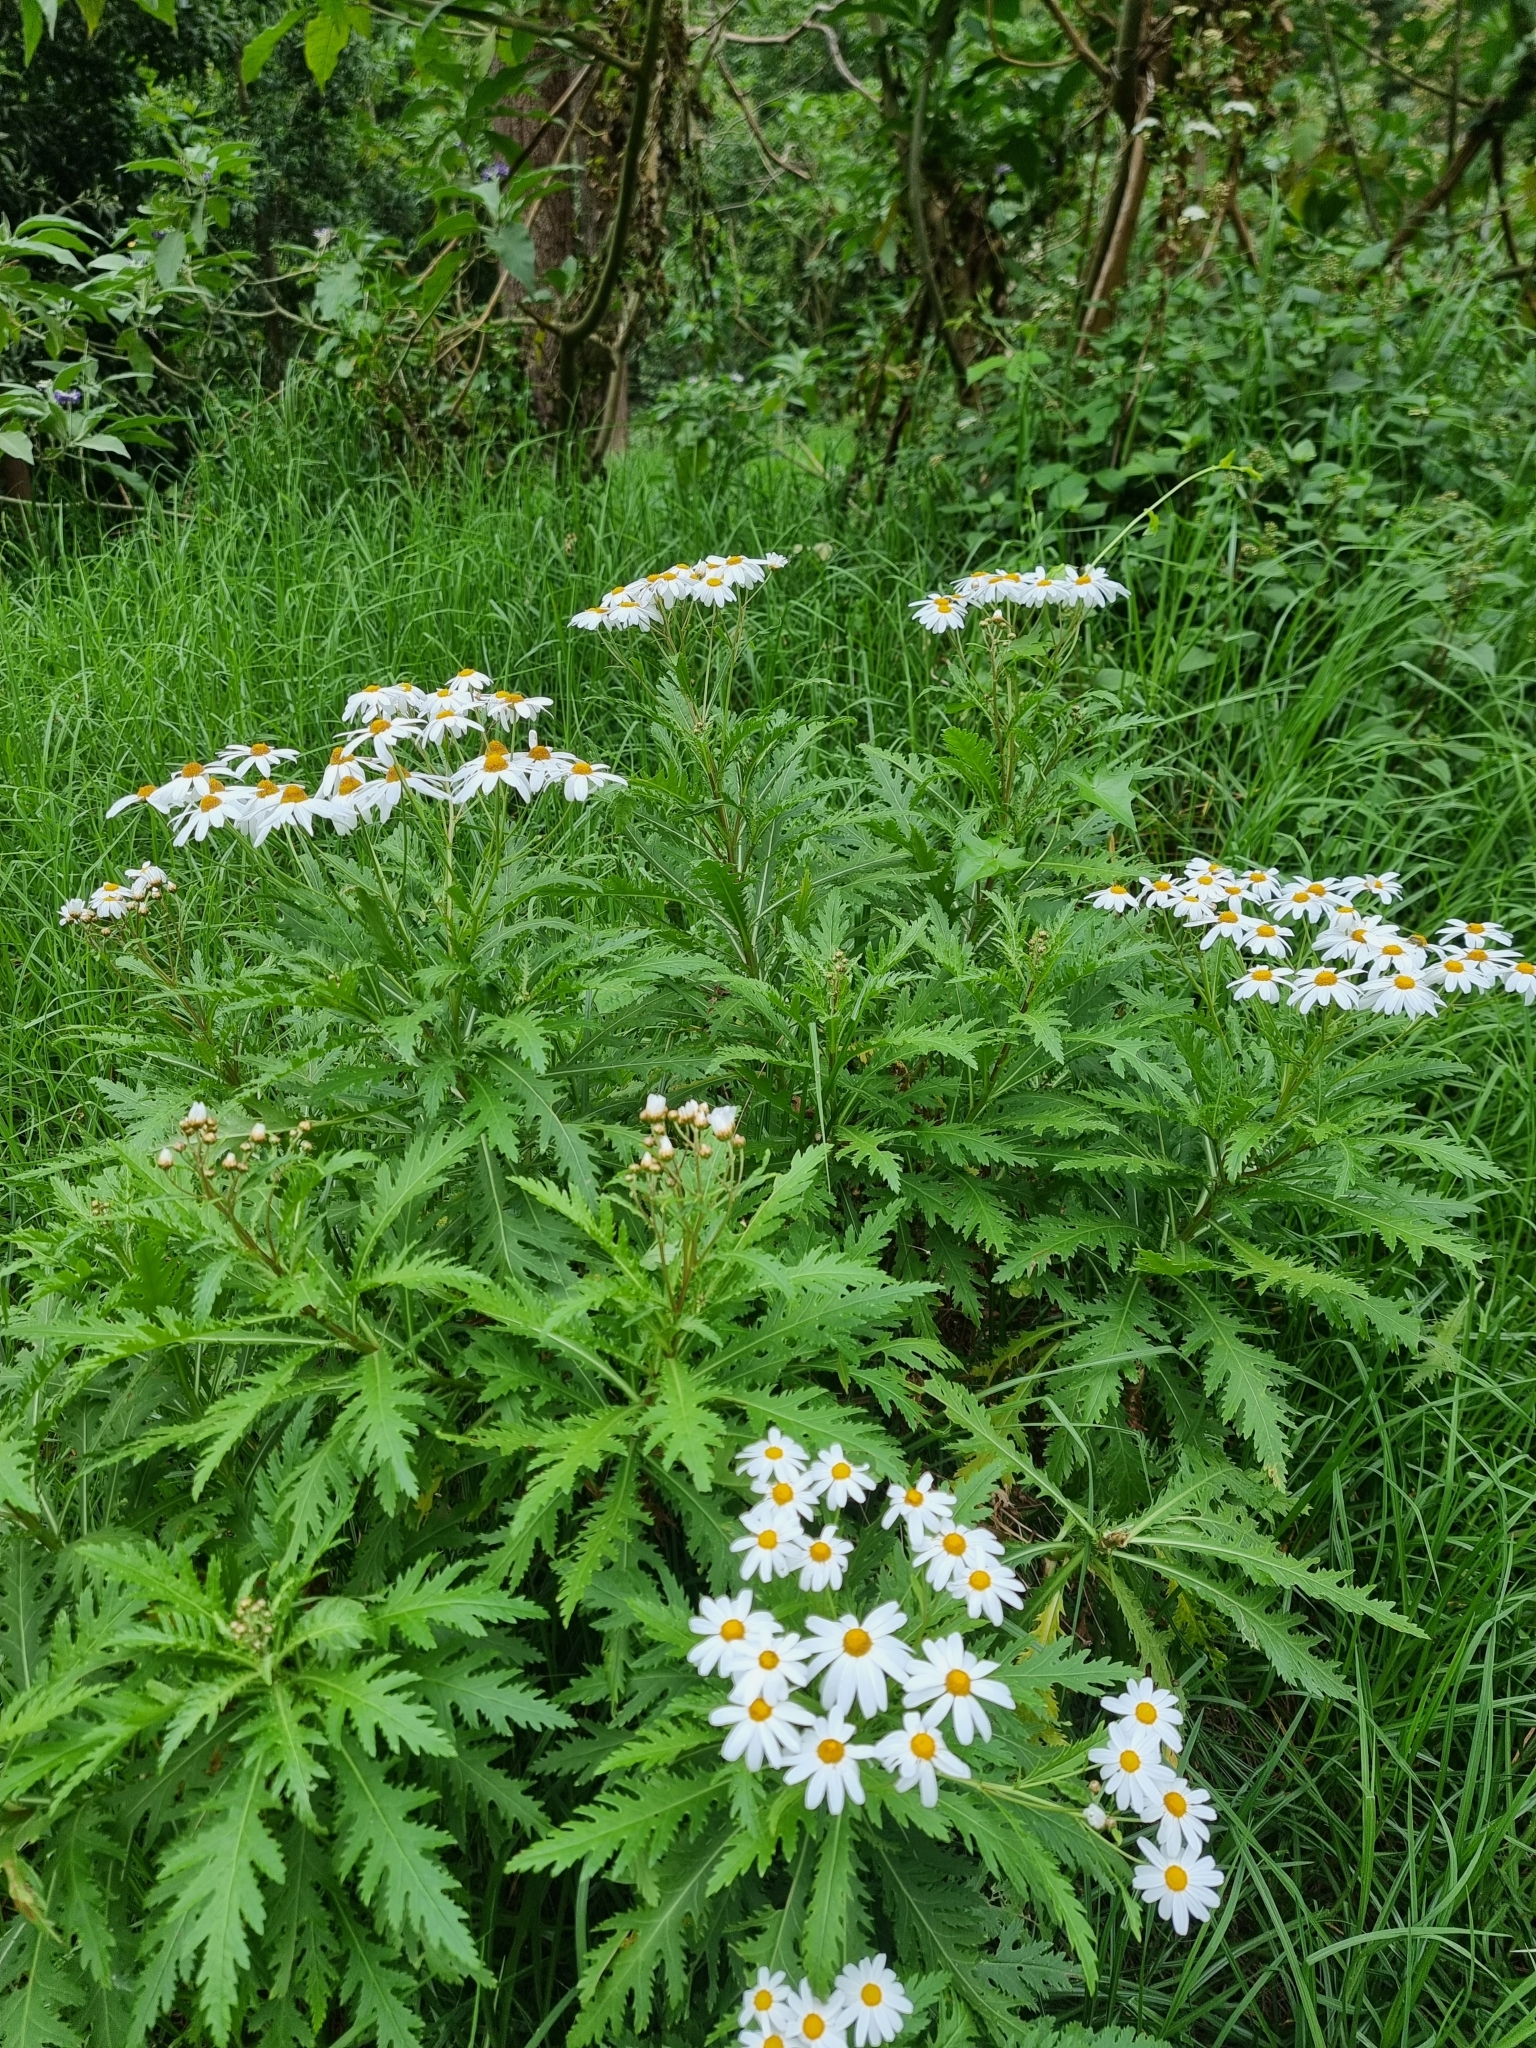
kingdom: Plantae
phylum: Tracheophyta
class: Magnoliopsida
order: Asterales
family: Asteraceae
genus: Argyranthemum
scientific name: Argyranthemum pinnatifidum
